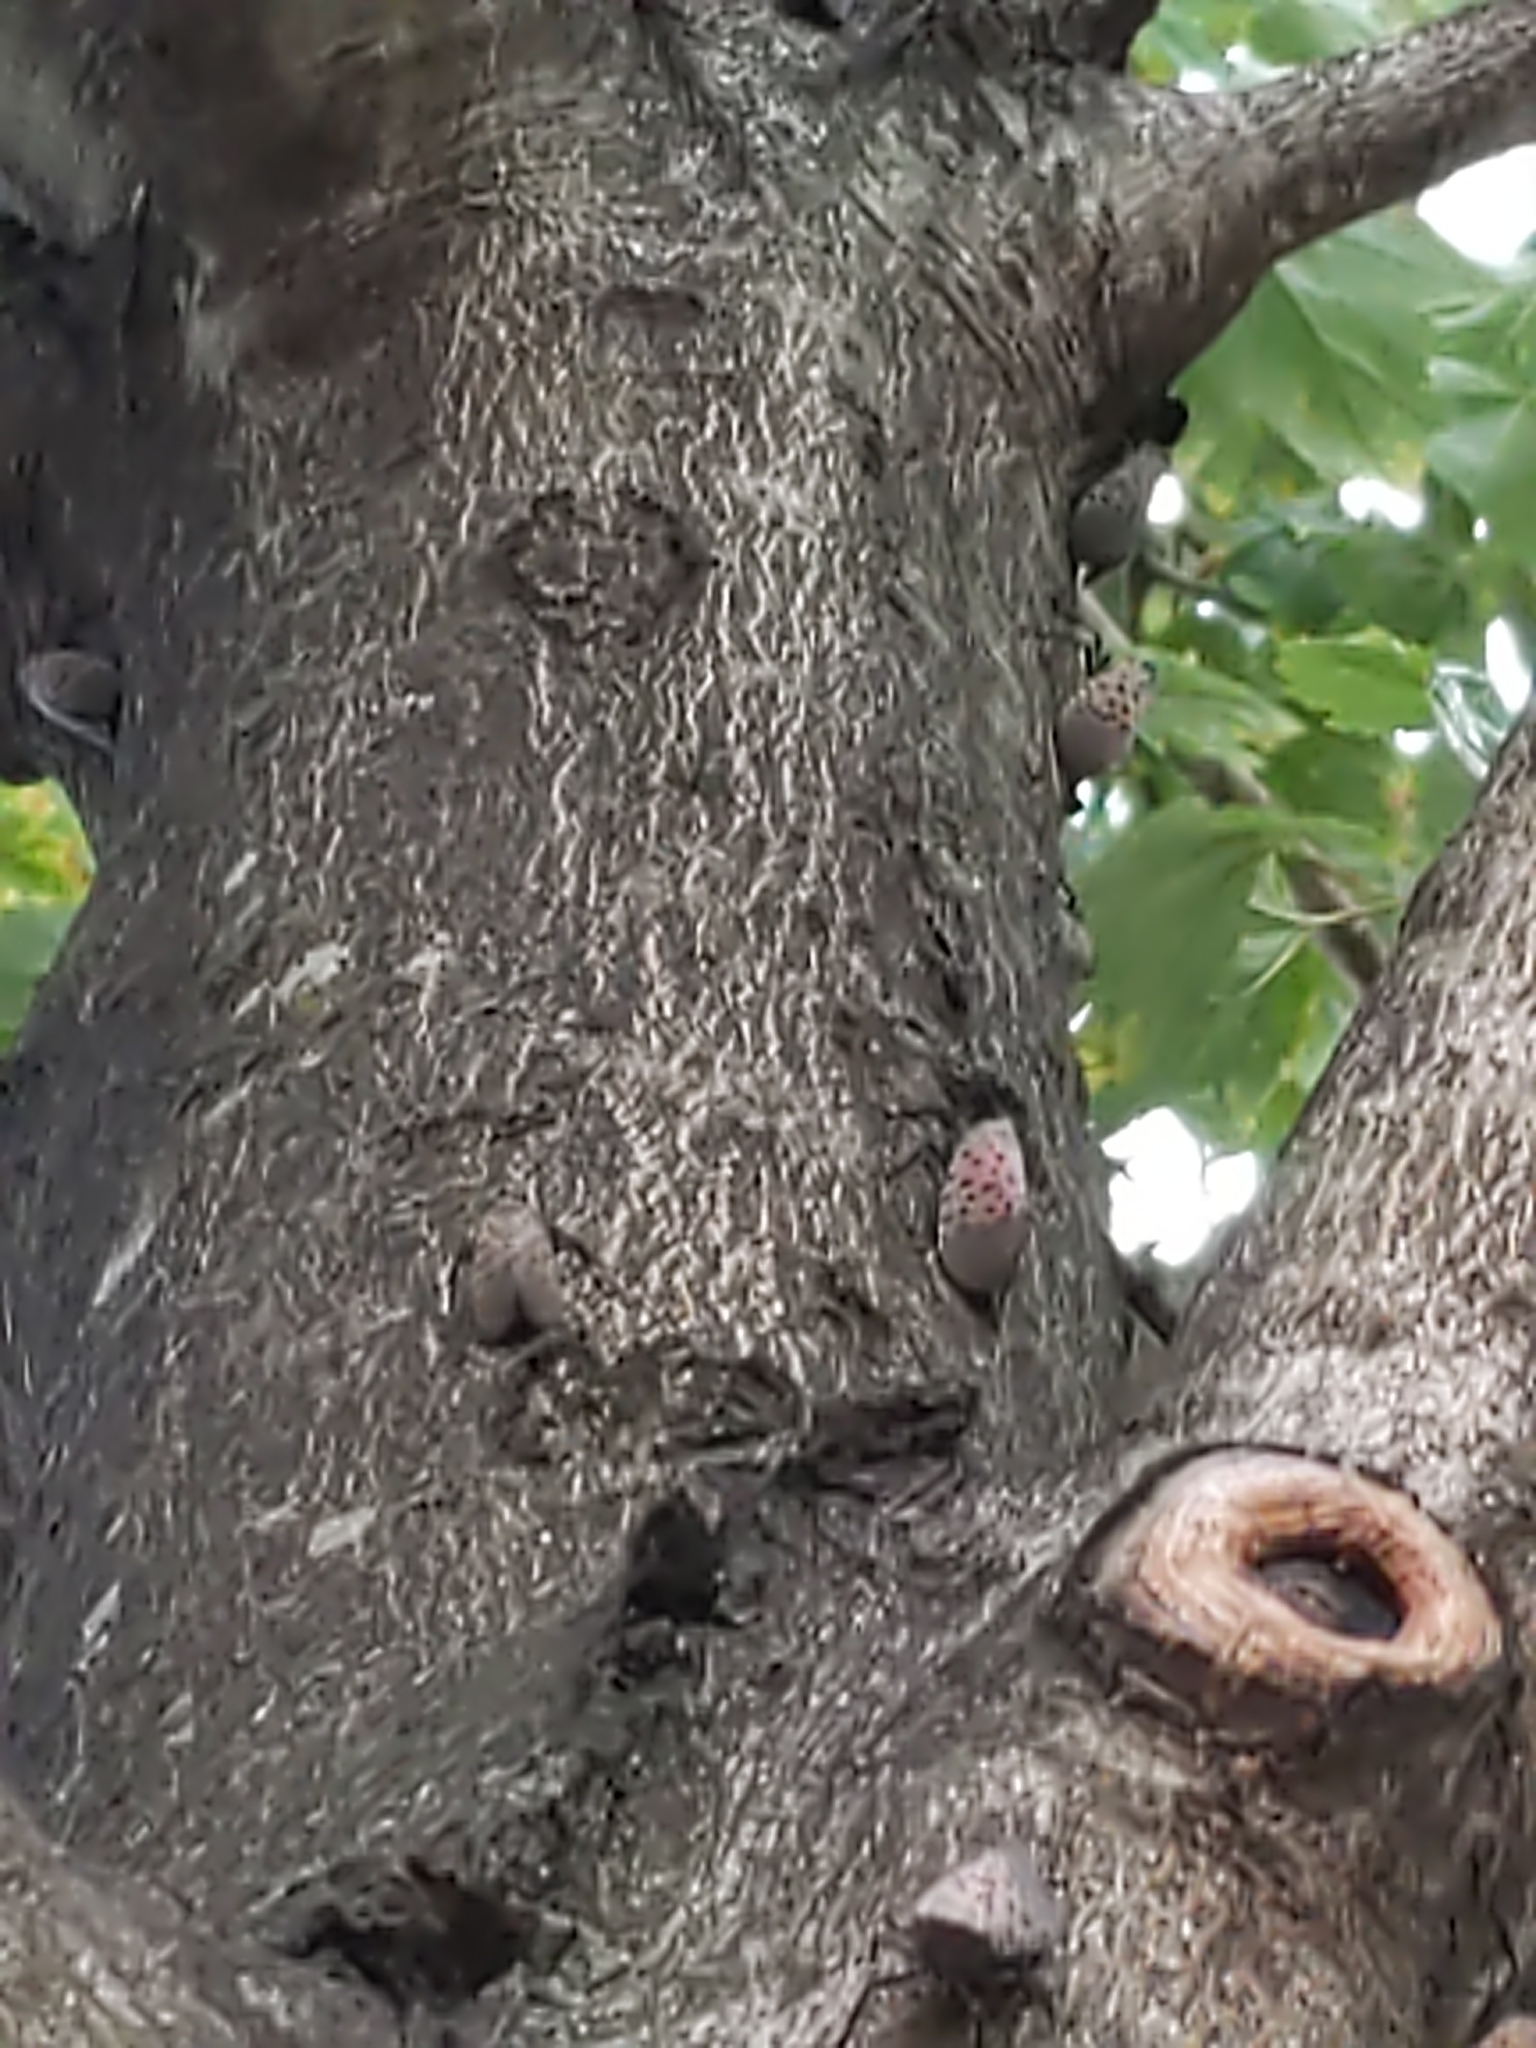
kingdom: Animalia
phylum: Arthropoda
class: Insecta
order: Hemiptera
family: Fulgoridae
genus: Lycorma
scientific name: Lycorma delicatula
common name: Spotted lanternfly
